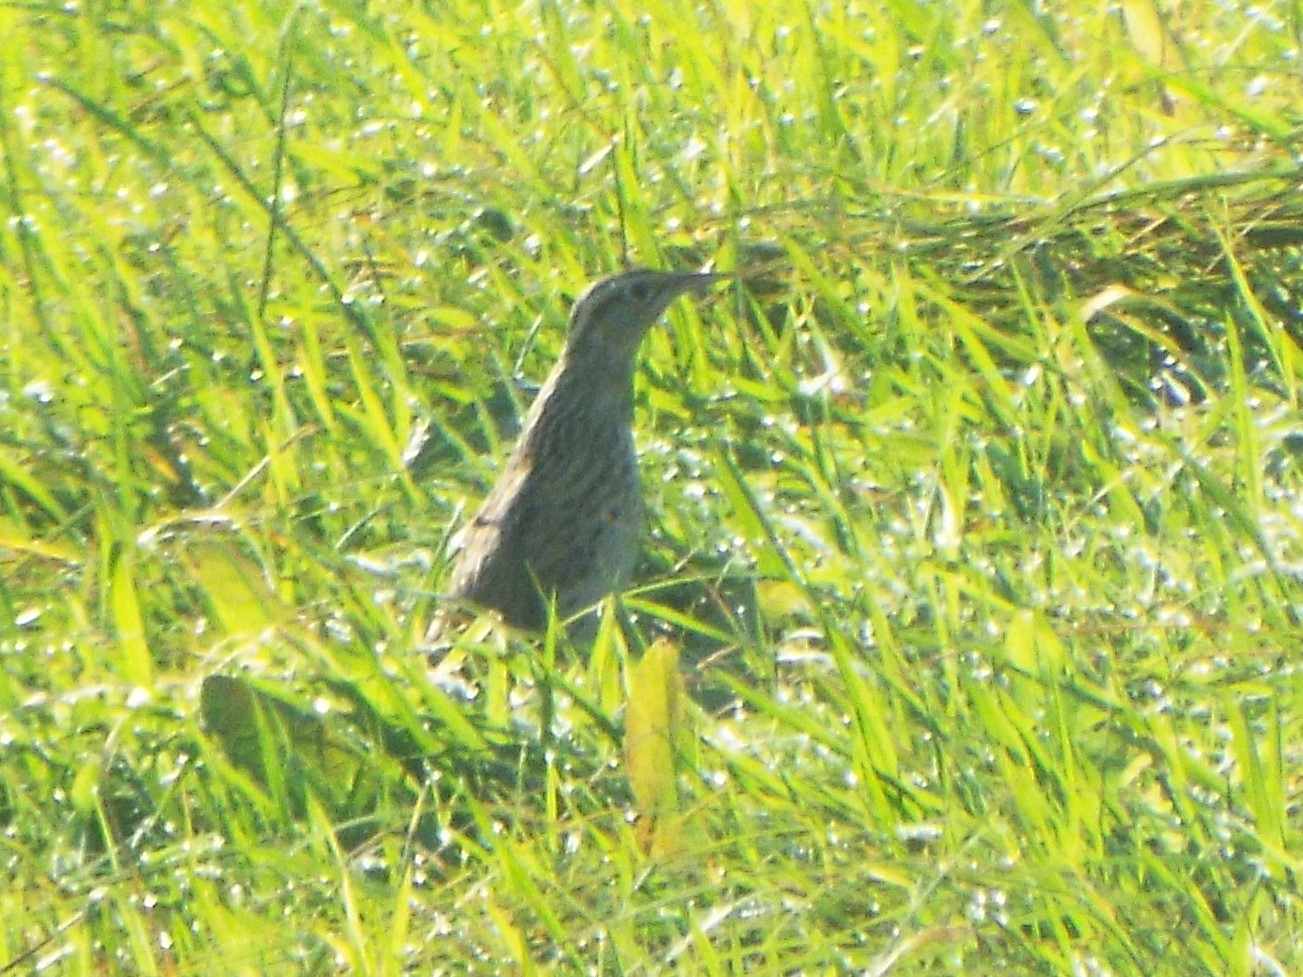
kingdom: Animalia
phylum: Chordata
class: Aves
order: Passeriformes
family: Icteridae
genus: Sturnella
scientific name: Sturnella magna
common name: Eastern meadowlark
